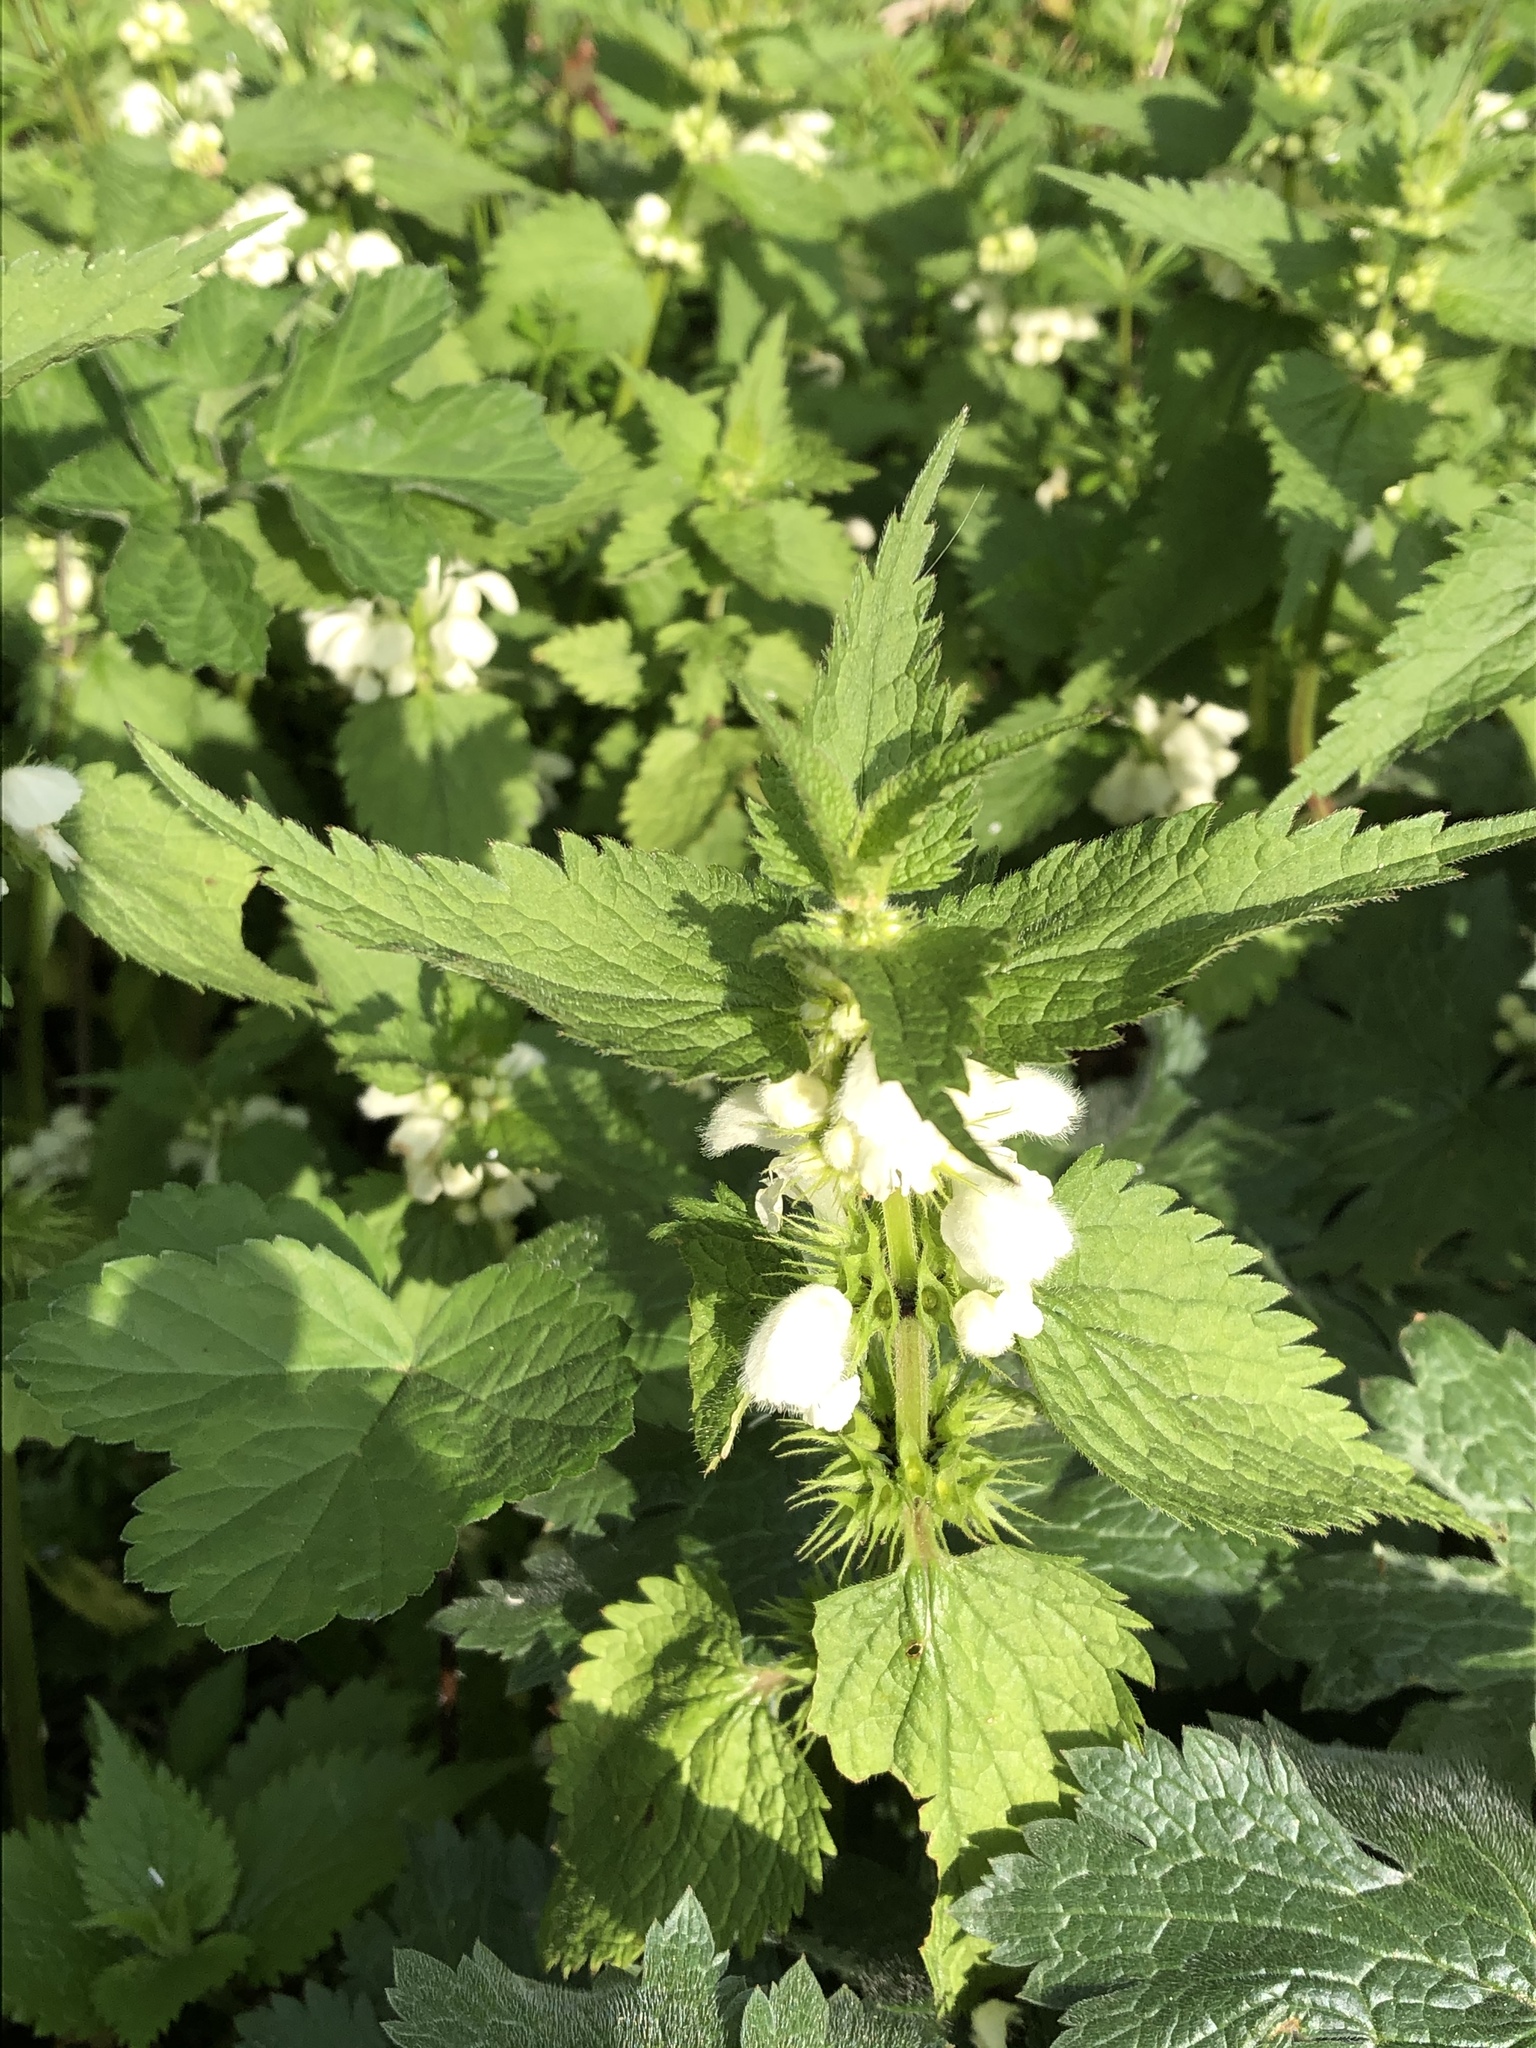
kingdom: Plantae
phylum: Tracheophyta
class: Magnoliopsida
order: Lamiales
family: Lamiaceae
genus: Lamium
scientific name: Lamium album
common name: White dead-nettle
